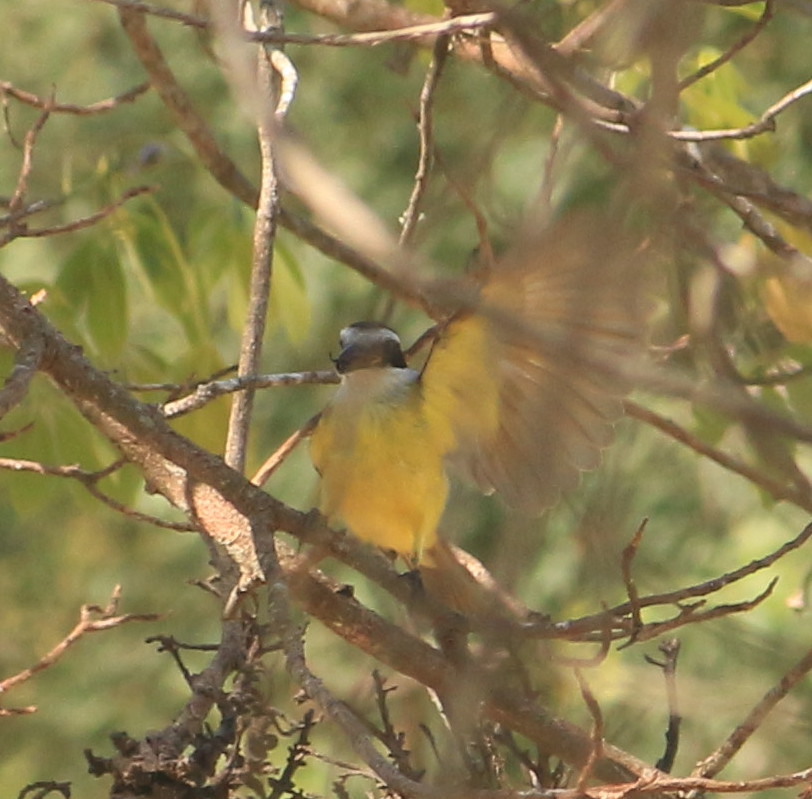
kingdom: Animalia
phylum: Chordata
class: Aves
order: Passeriformes
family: Tyrannidae
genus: Pitangus
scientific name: Pitangus sulphuratus
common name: Great kiskadee
